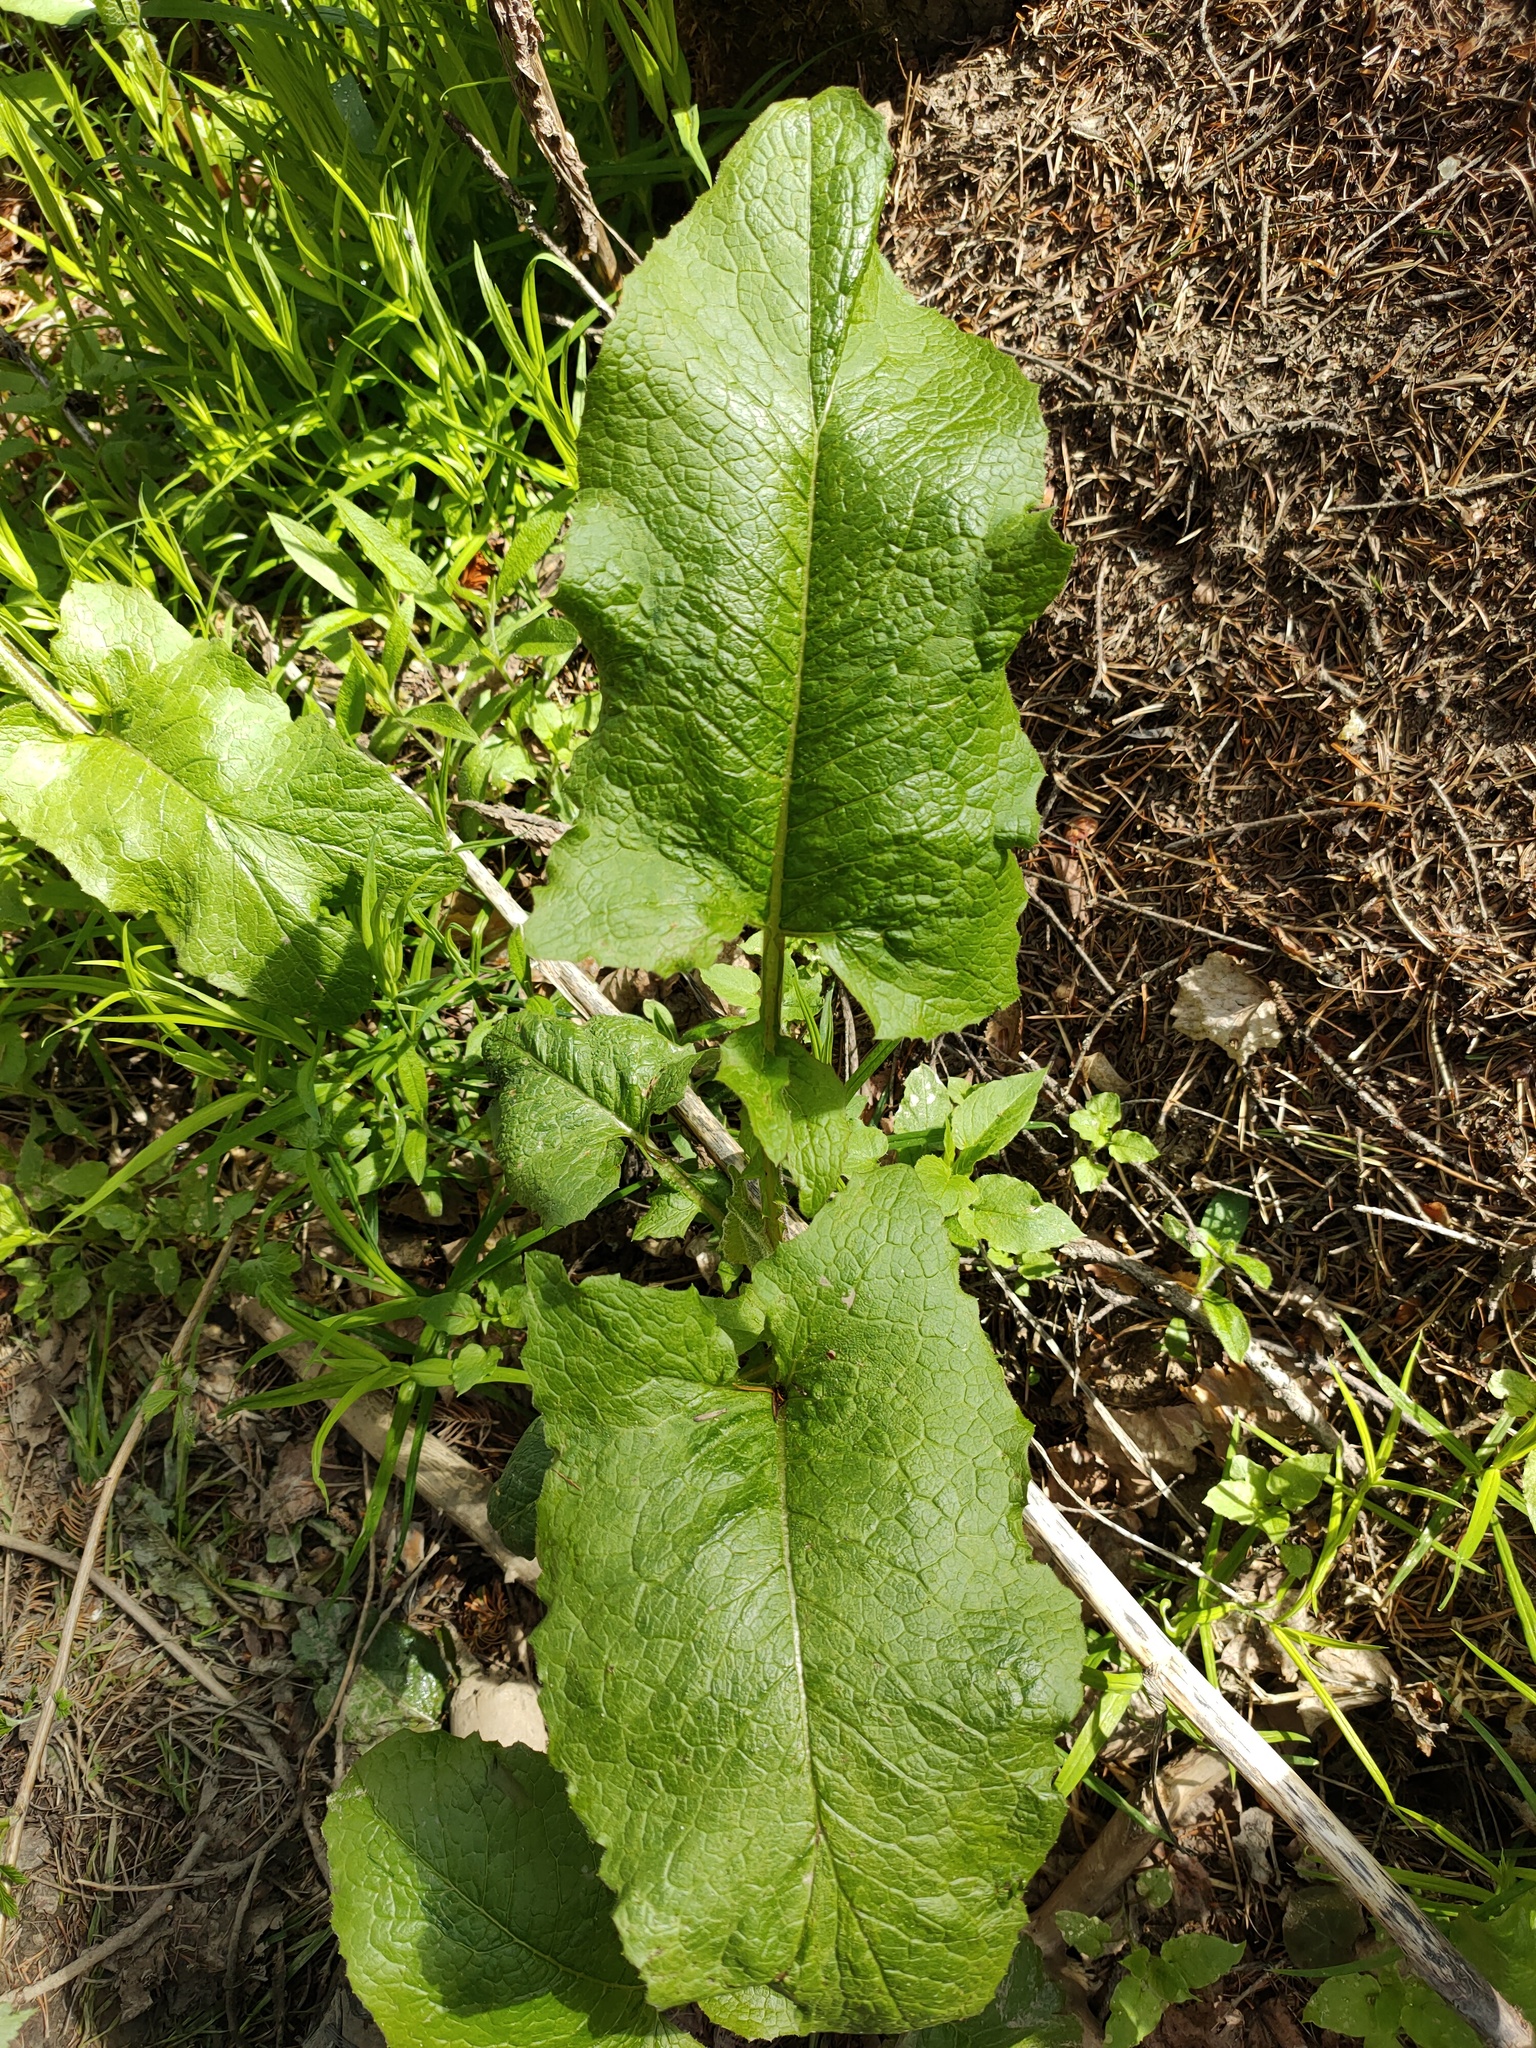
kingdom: Plantae
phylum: Tracheophyta
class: Magnoliopsida
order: Asterales
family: Asteraceae
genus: Lactuca
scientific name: Lactuca macrophylla
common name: Common blue-sow-thistle
